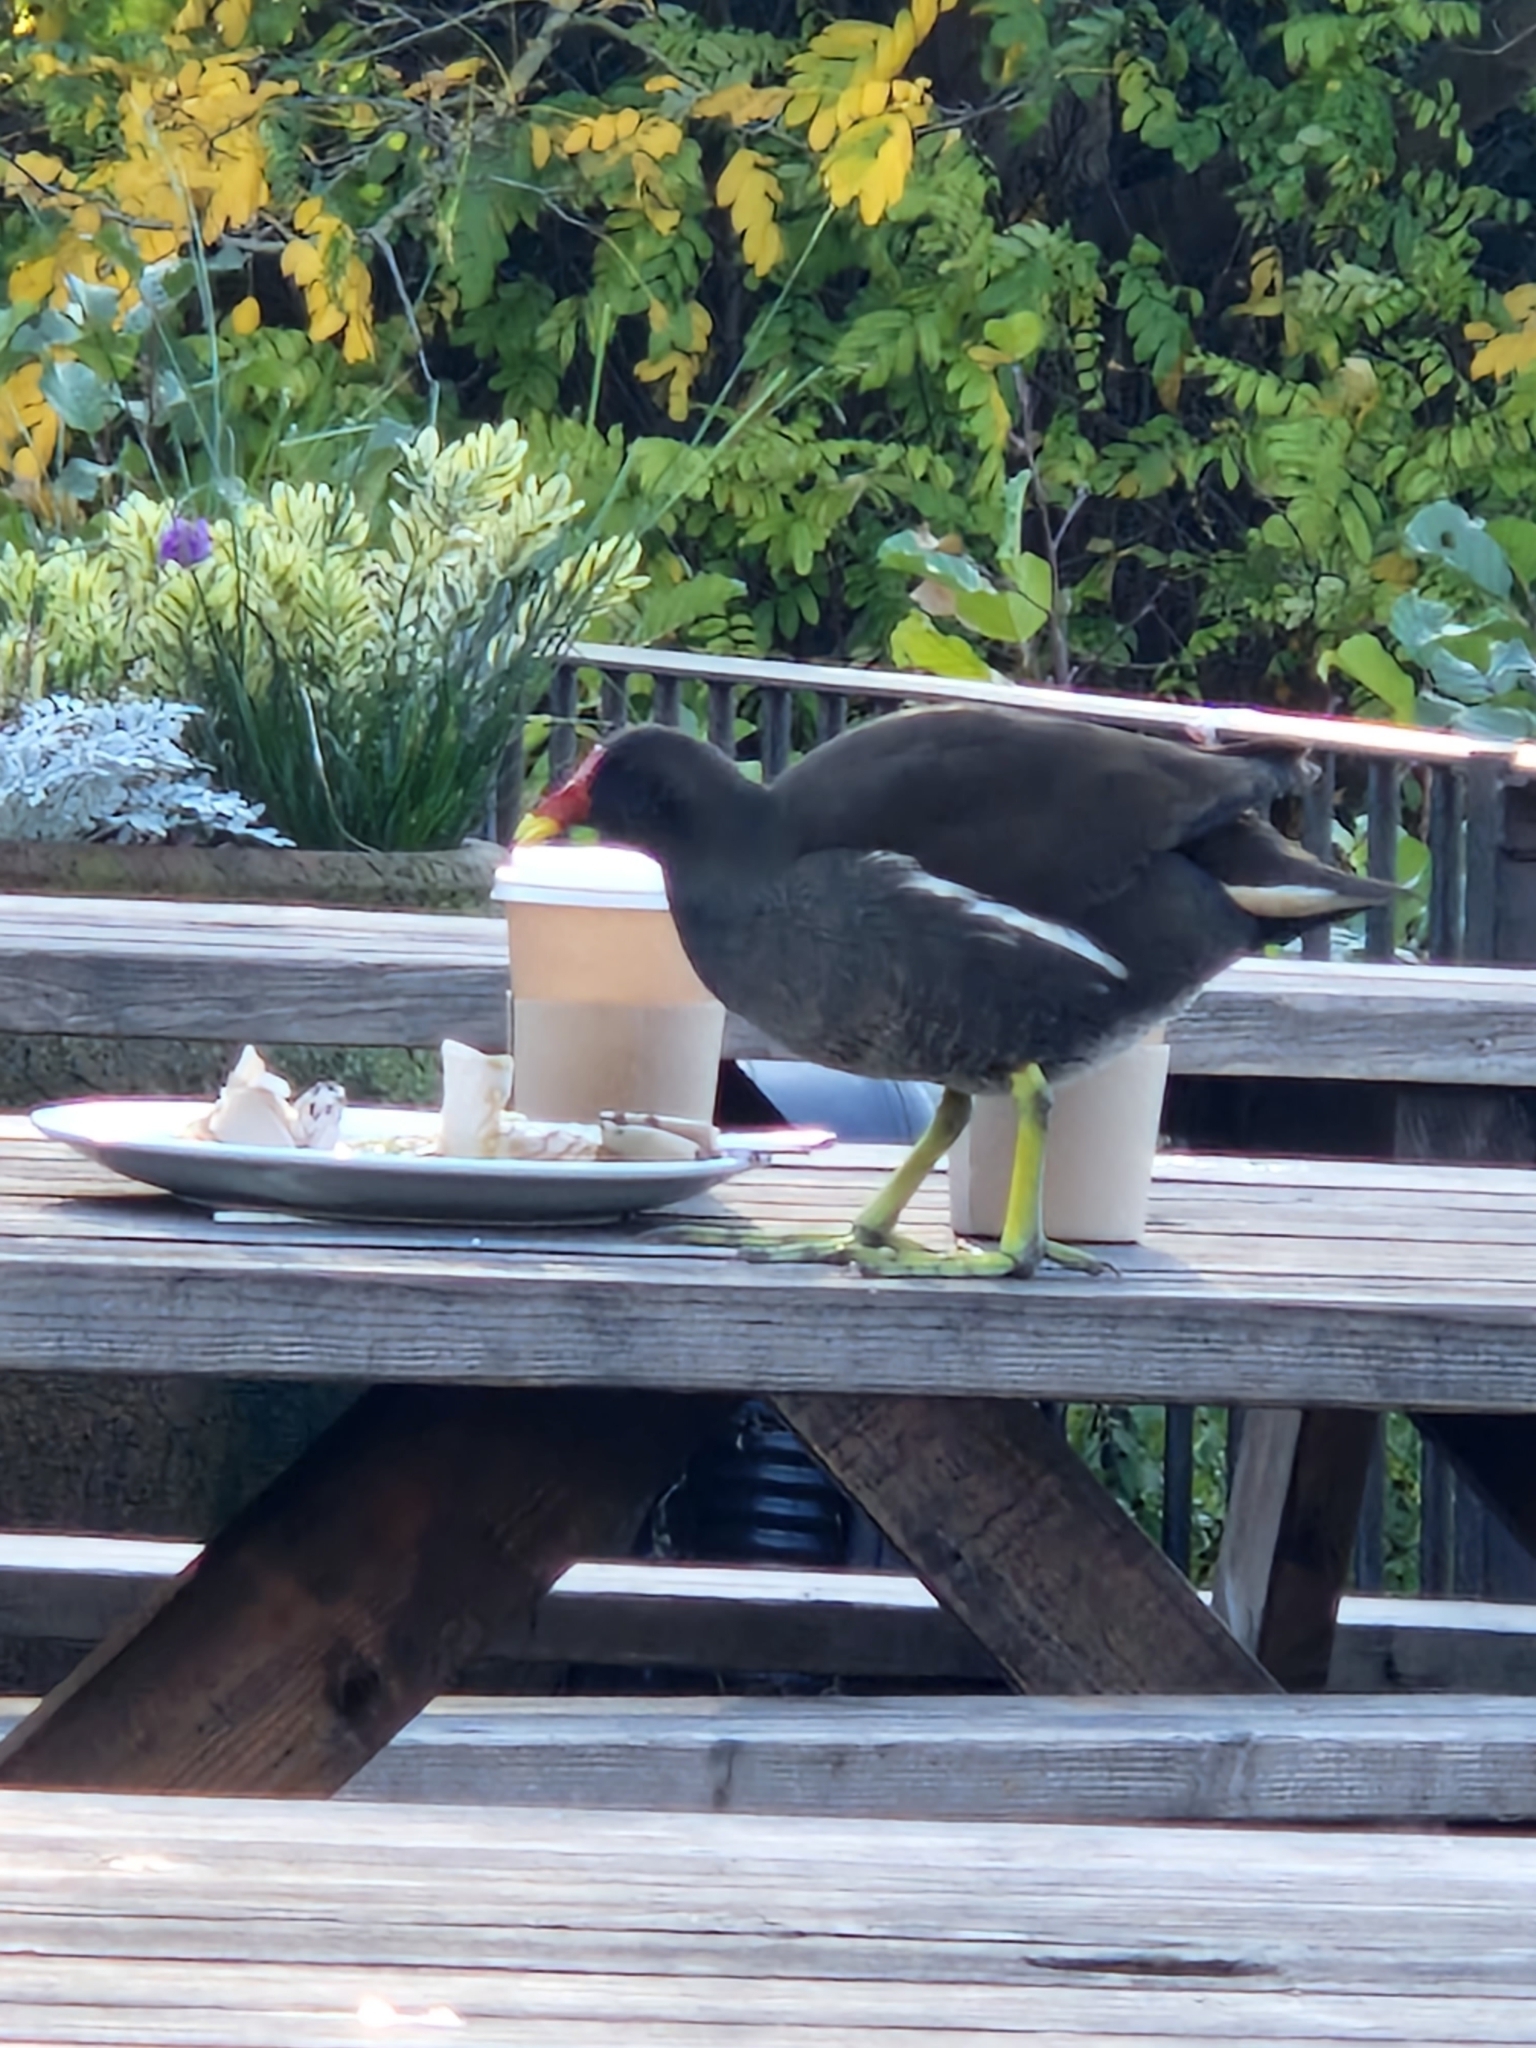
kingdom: Animalia
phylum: Chordata
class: Aves
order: Gruiformes
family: Rallidae
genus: Gallinula
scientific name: Gallinula chloropus
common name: Common moorhen
